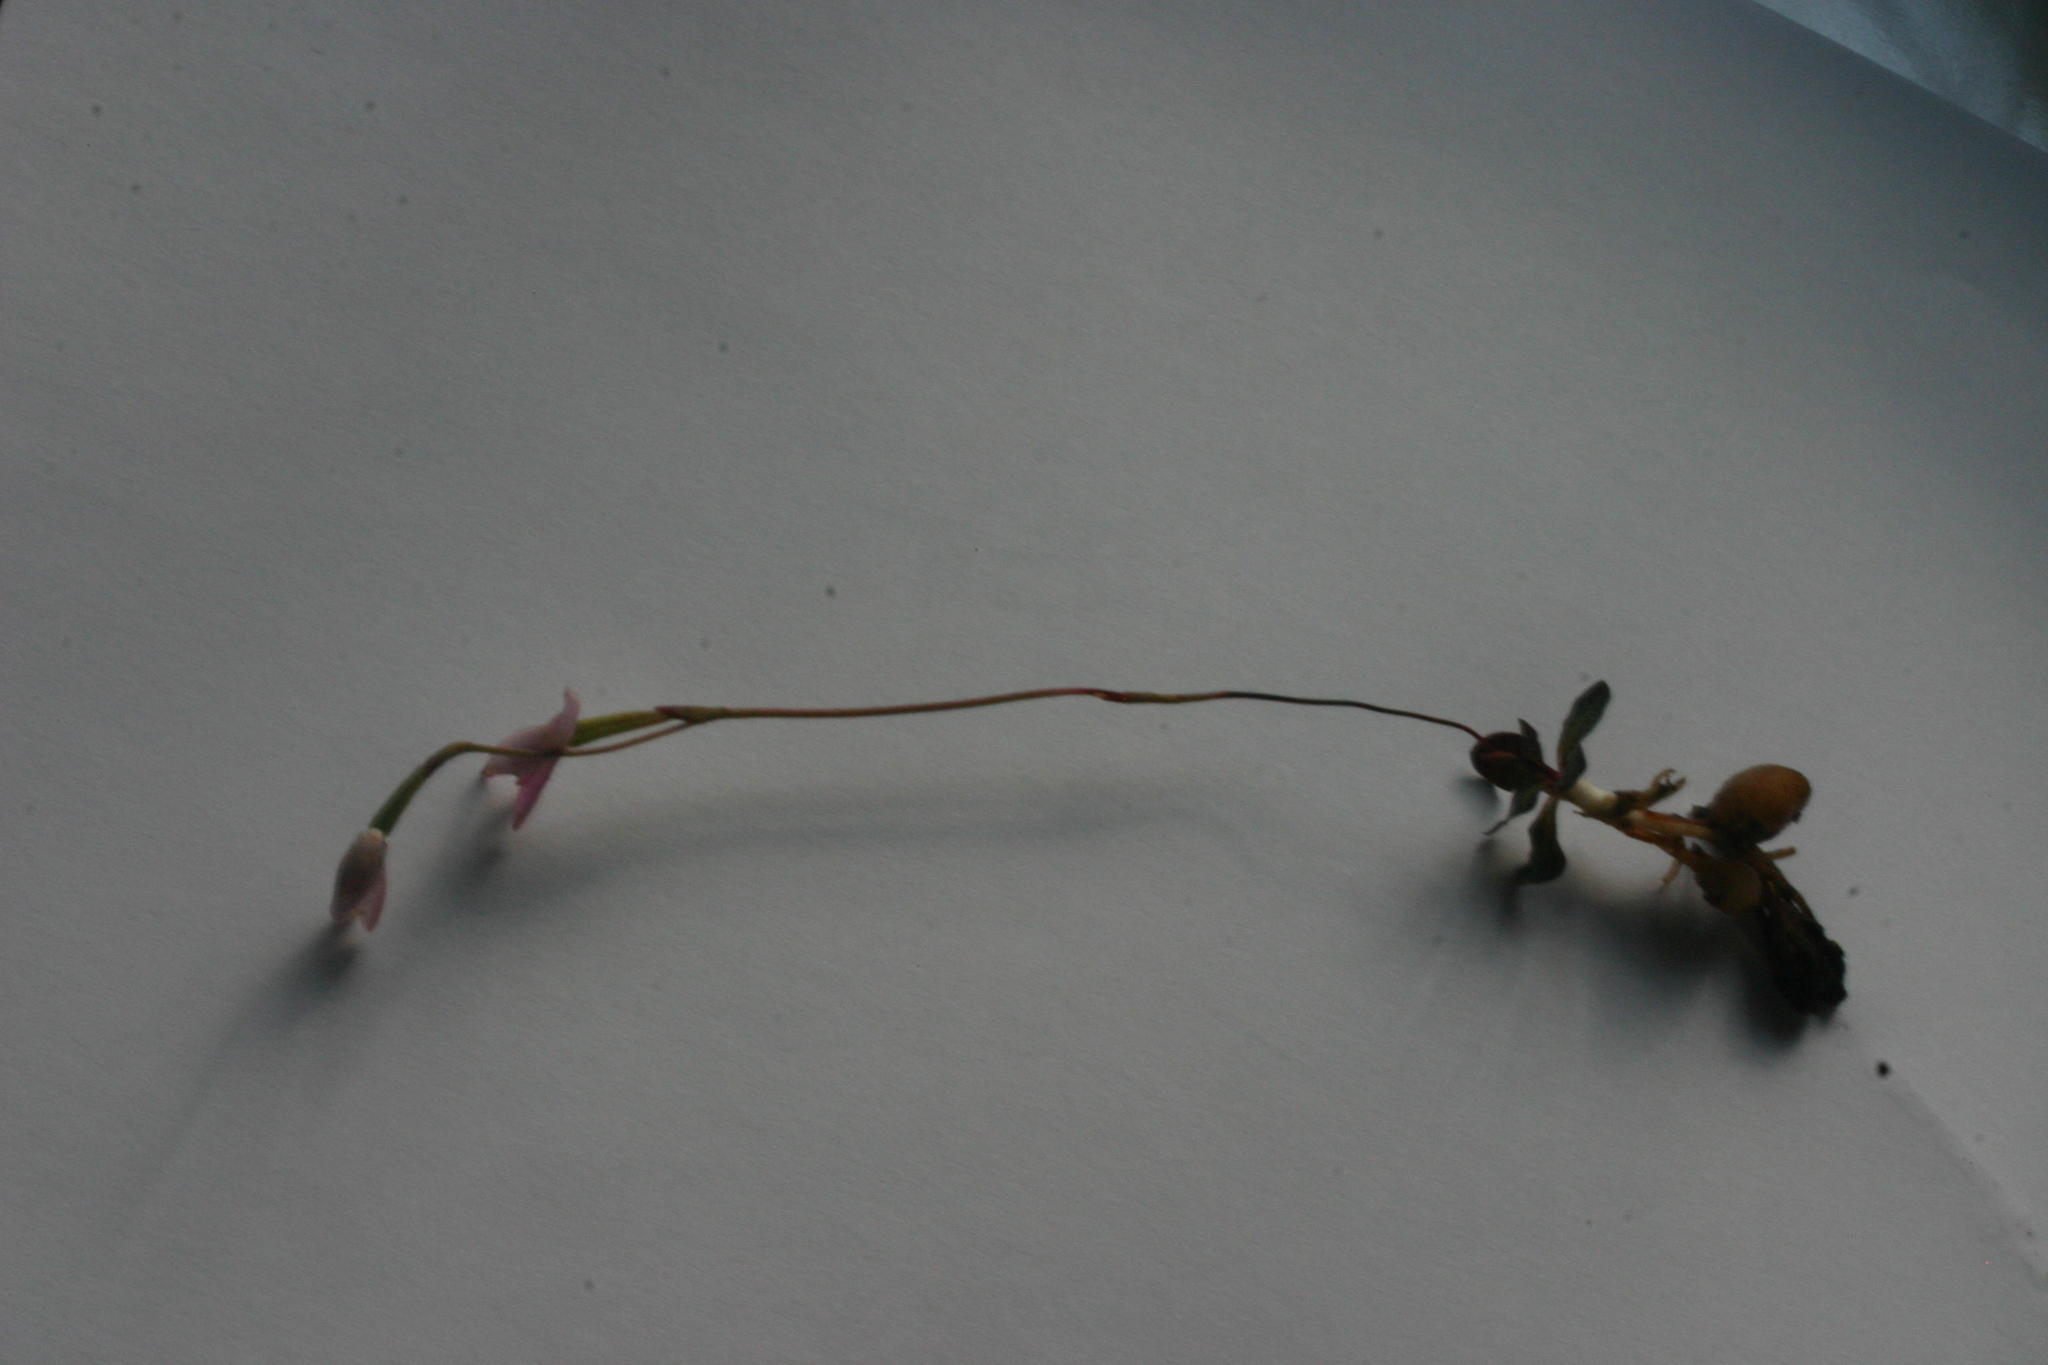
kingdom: Plantae
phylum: Tracheophyta
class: Liliopsida
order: Asparagales
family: Orchidaceae
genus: Disa
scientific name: Disa bifida
